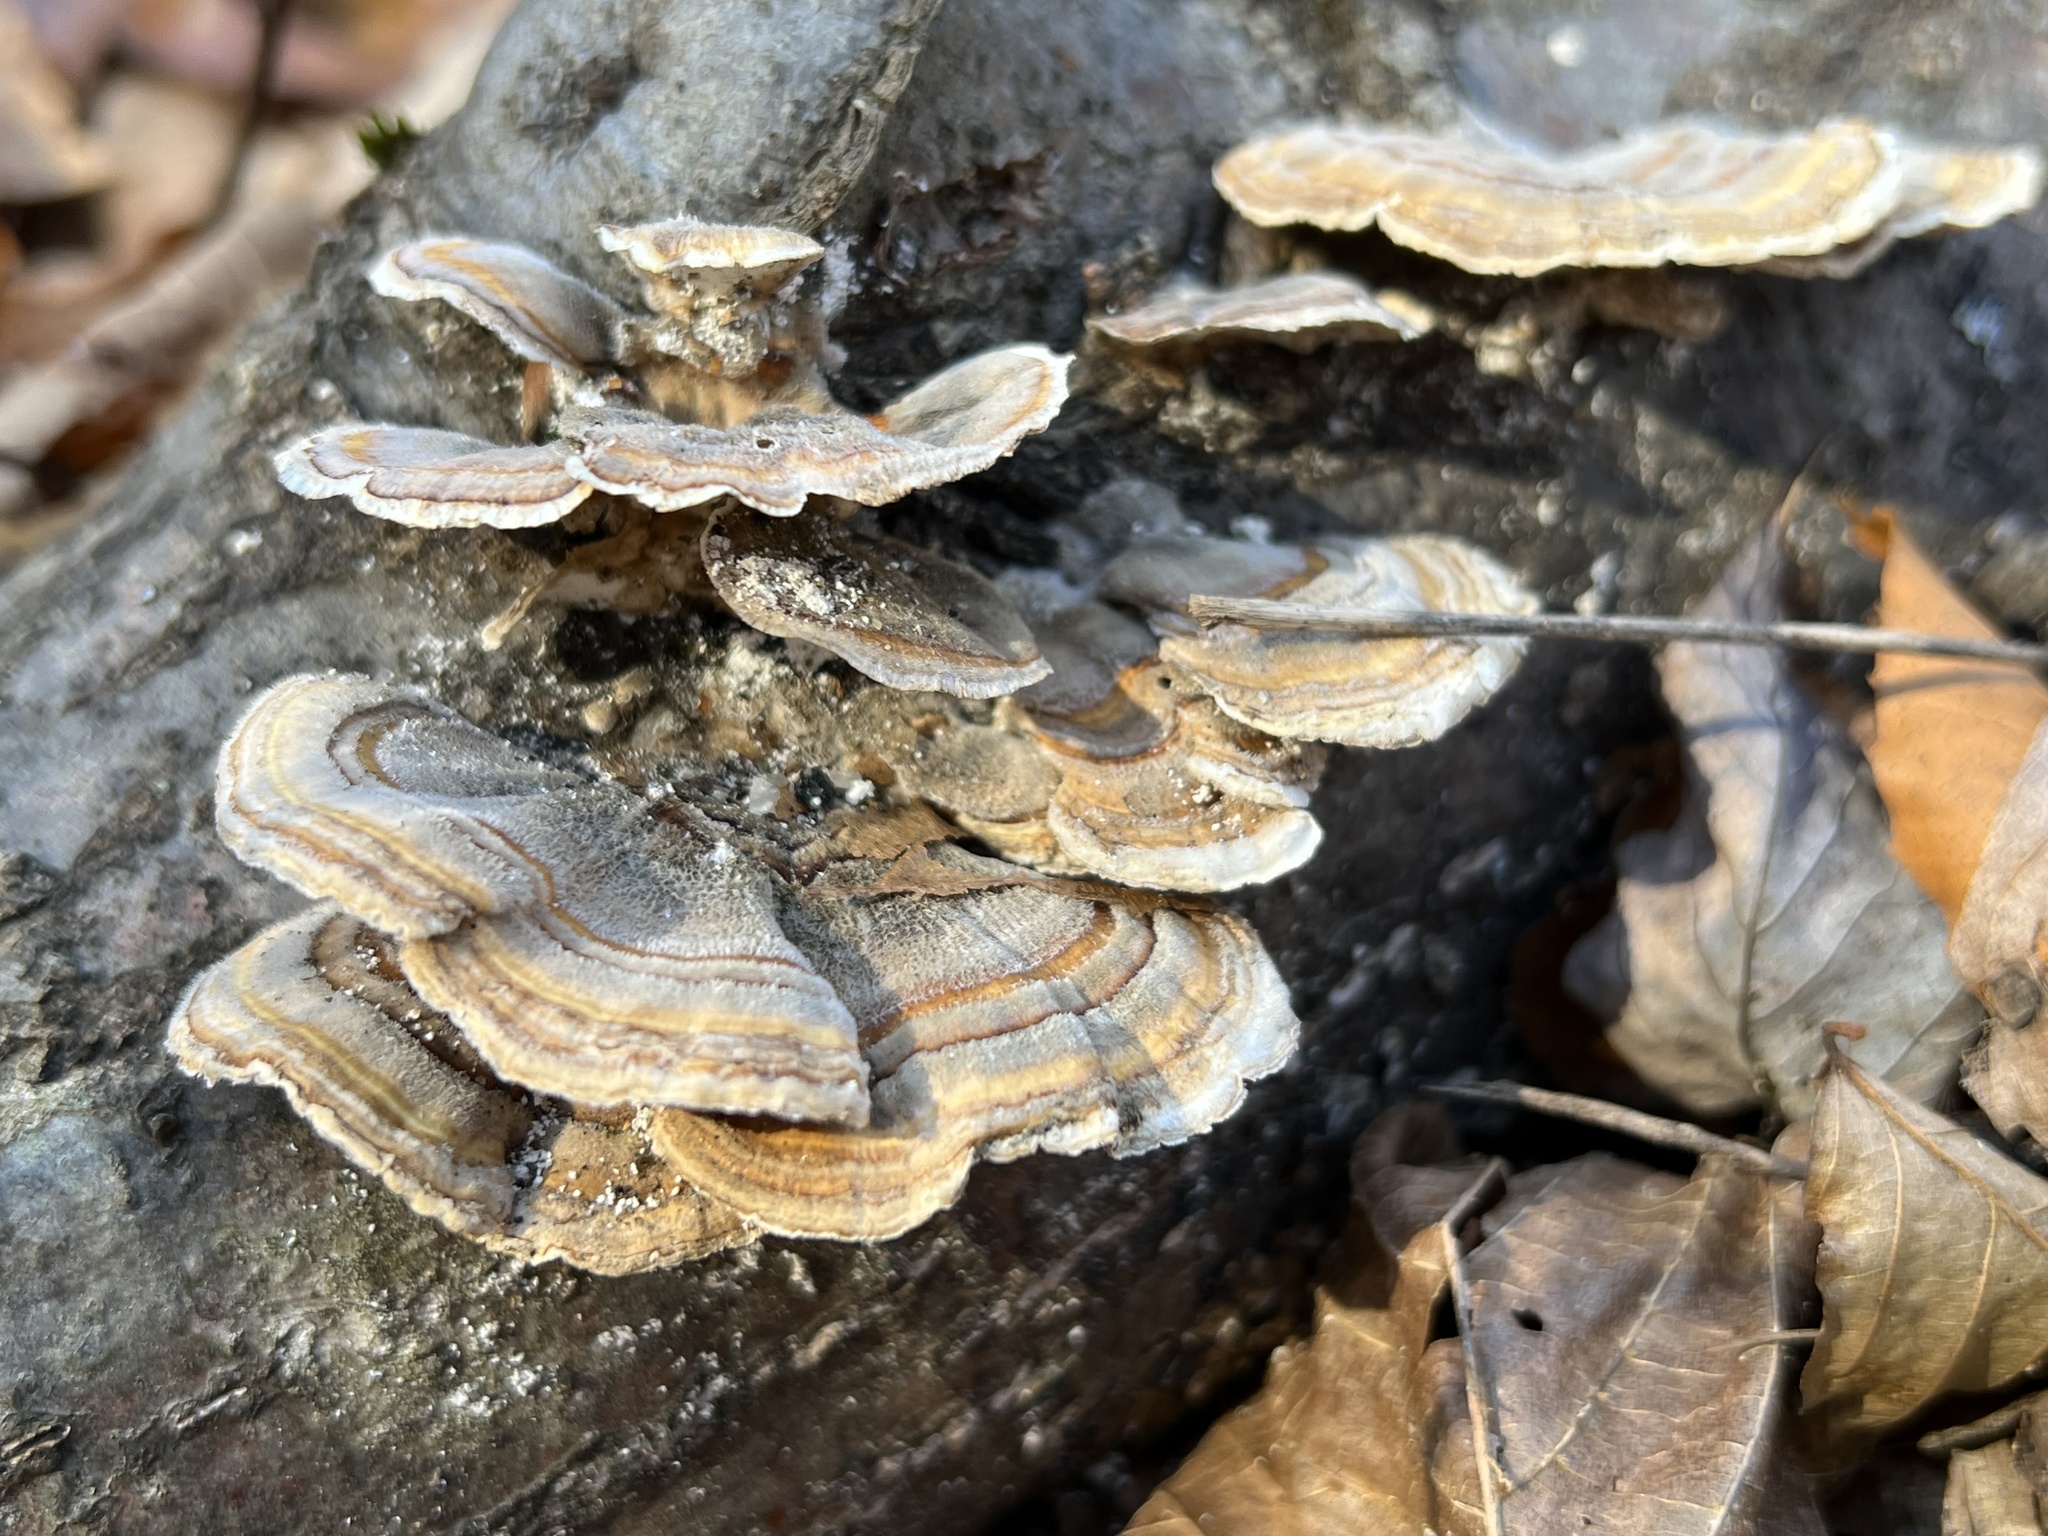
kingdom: Fungi
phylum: Basidiomycota
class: Agaricomycetes
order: Polyporales
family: Polyporaceae
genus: Trametes
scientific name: Trametes versicolor
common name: Turkeytail
